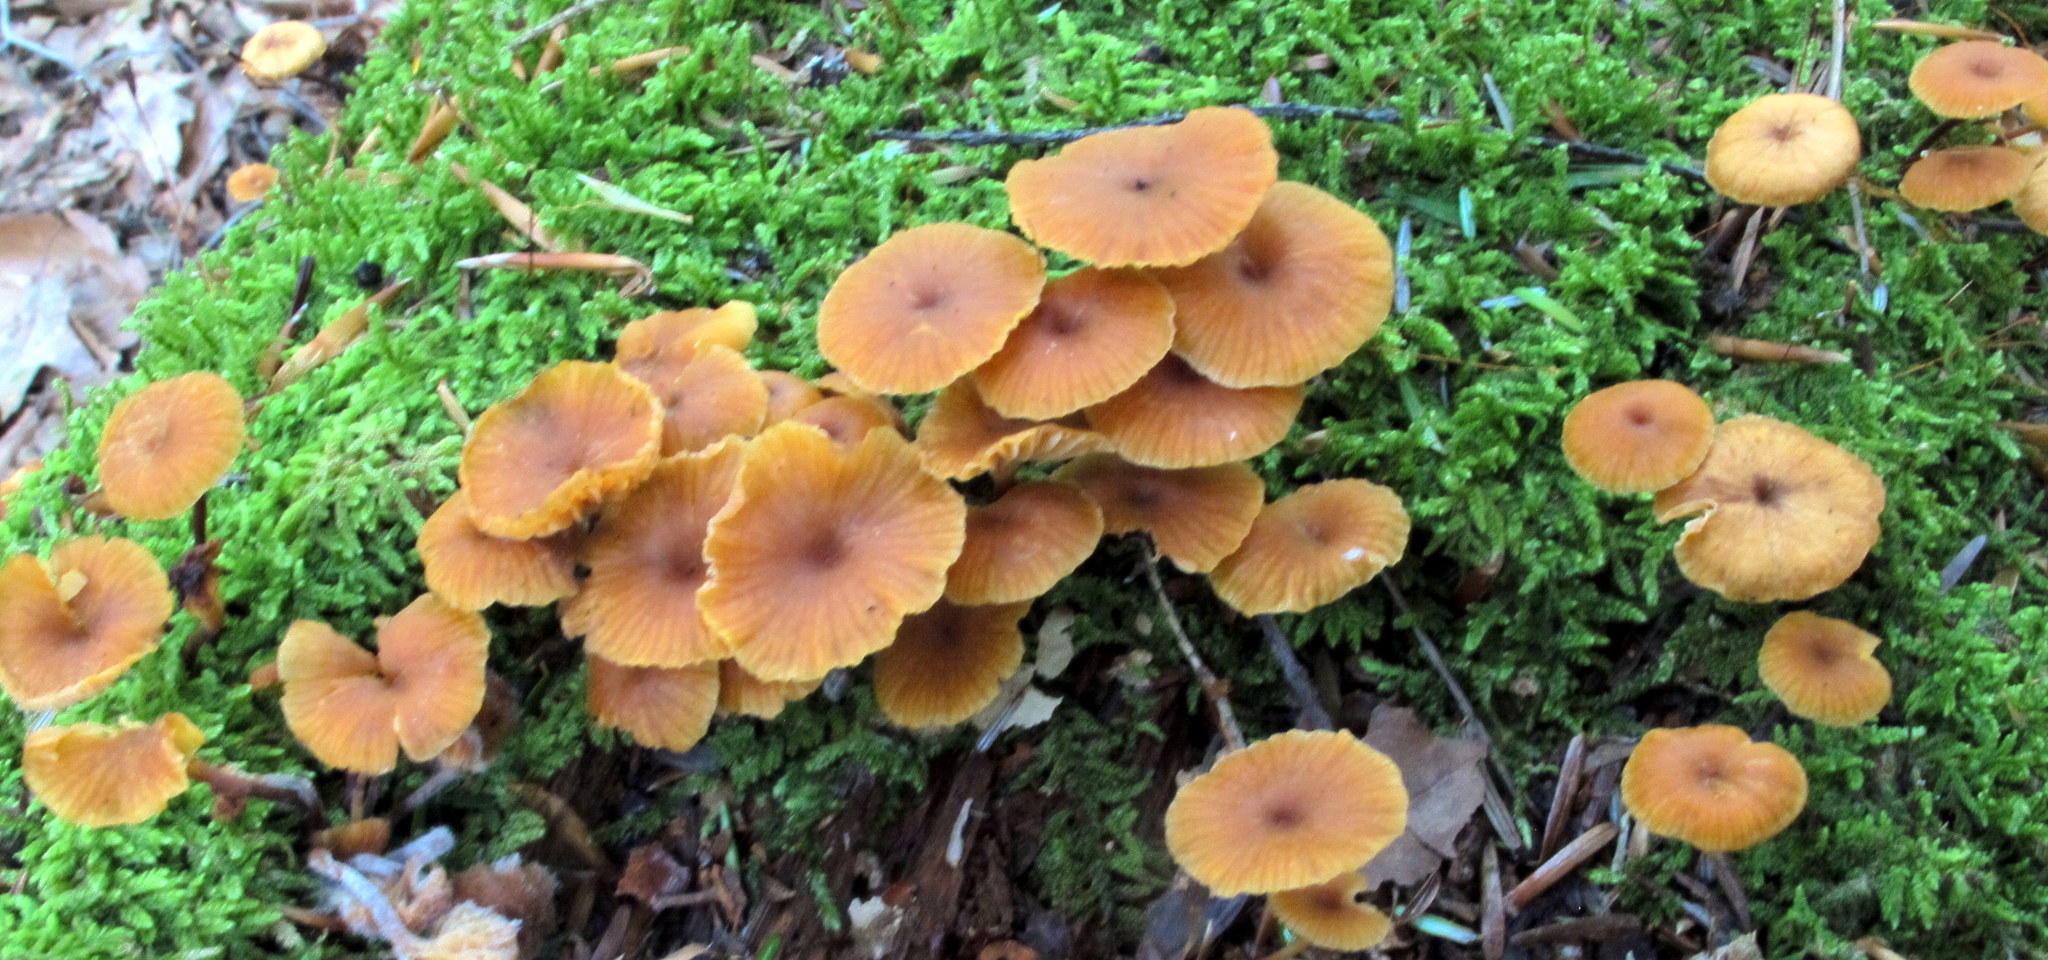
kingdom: Fungi
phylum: Basidiomycota
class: Agaricomycetes
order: Agaricales
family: Mycenaceae
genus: Xeromphalina
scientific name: Xeromphalina campanella
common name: Pinewood gingertail
